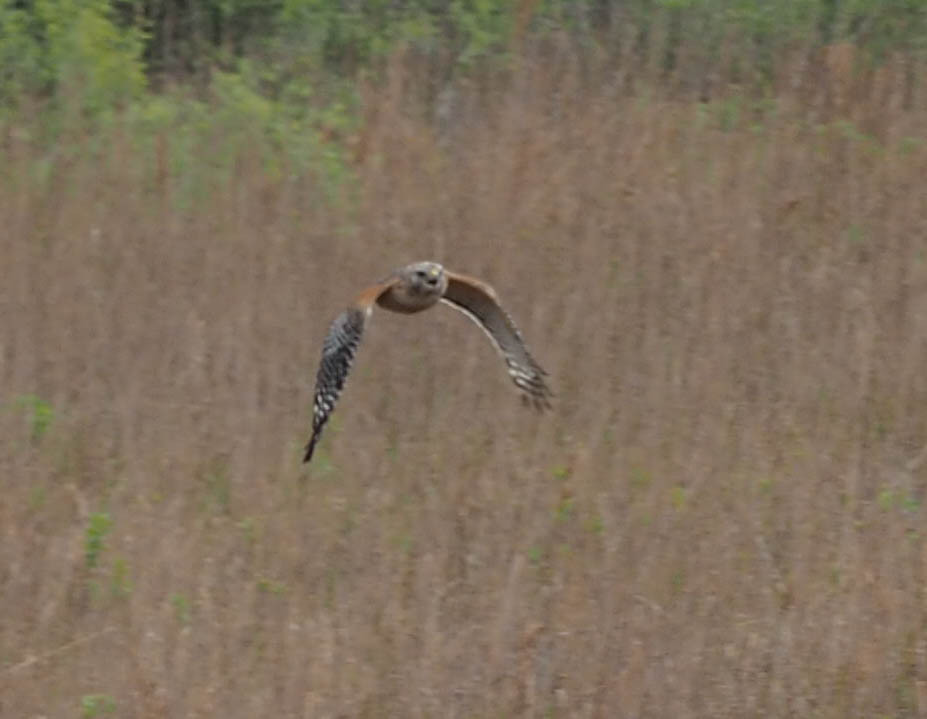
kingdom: Animalia
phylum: Chordata
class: Aves
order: Accipitriformes
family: Accipitridae
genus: Buteo
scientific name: Buteo lineatus
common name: Red-shouldered hawk
